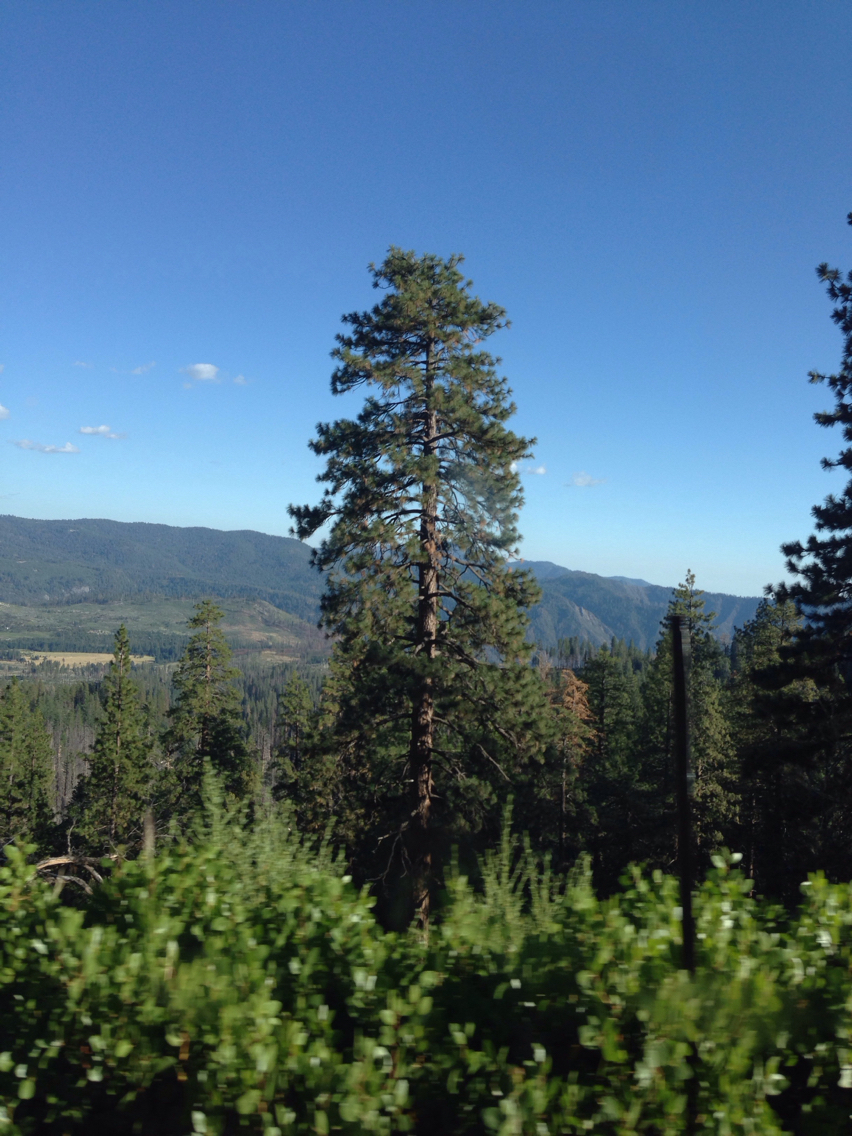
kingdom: Plantae
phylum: Tracheophyta
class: Pinopsida
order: Pinales
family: Pinaceae
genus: Pinus
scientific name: Pinus ponderosa
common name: Western yellow-pine
